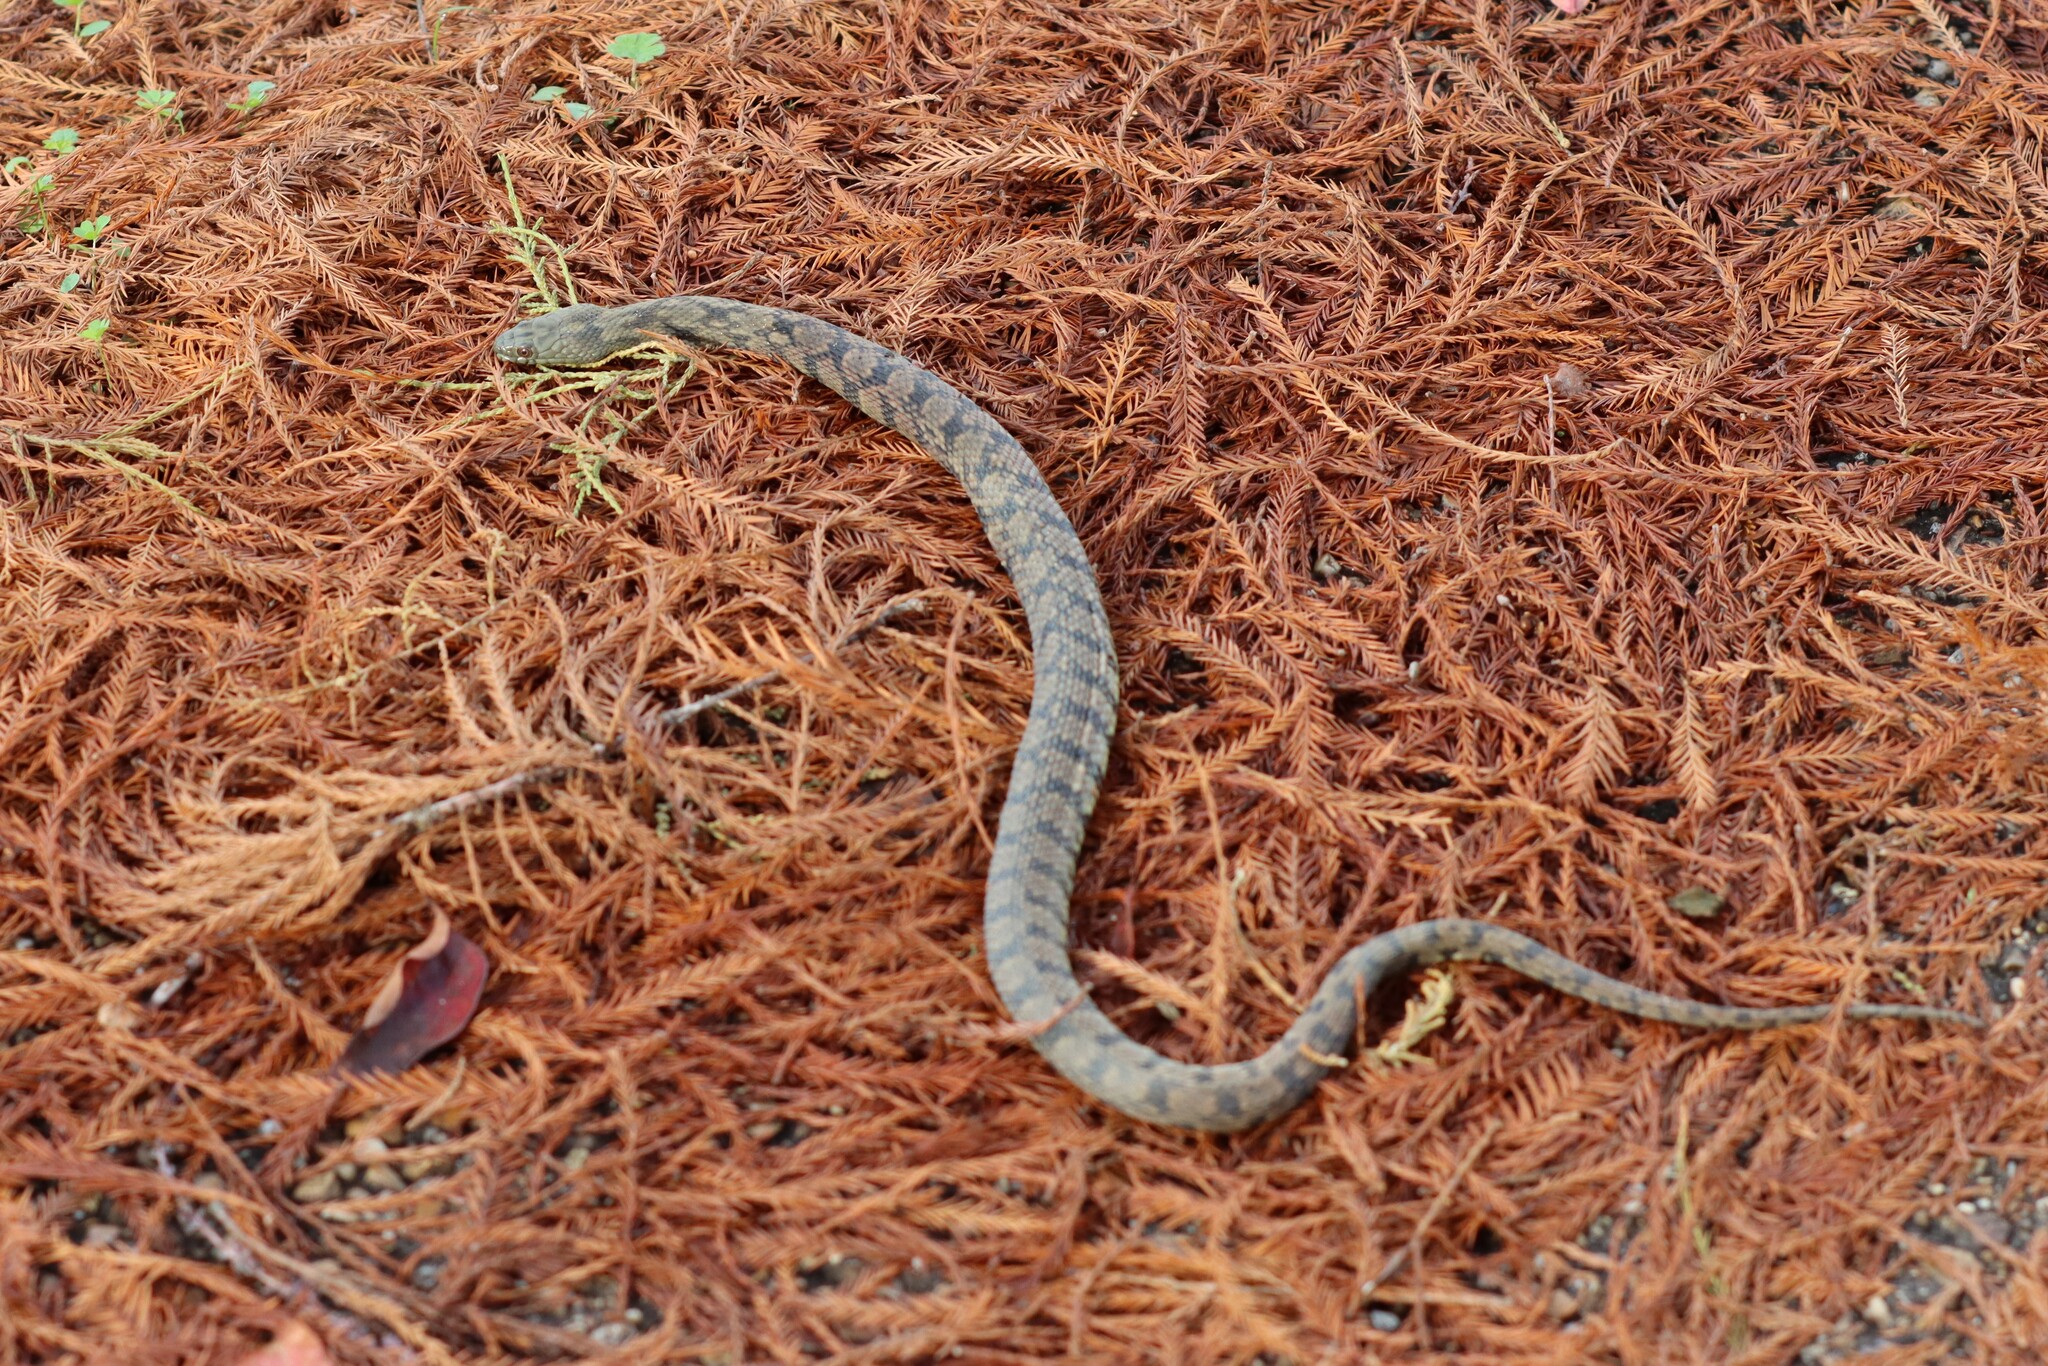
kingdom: Animalia
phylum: Chordata
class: Squamata
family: Colubridae
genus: Nerodia
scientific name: Nerodia rhombifer
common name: Diamondback water snake
